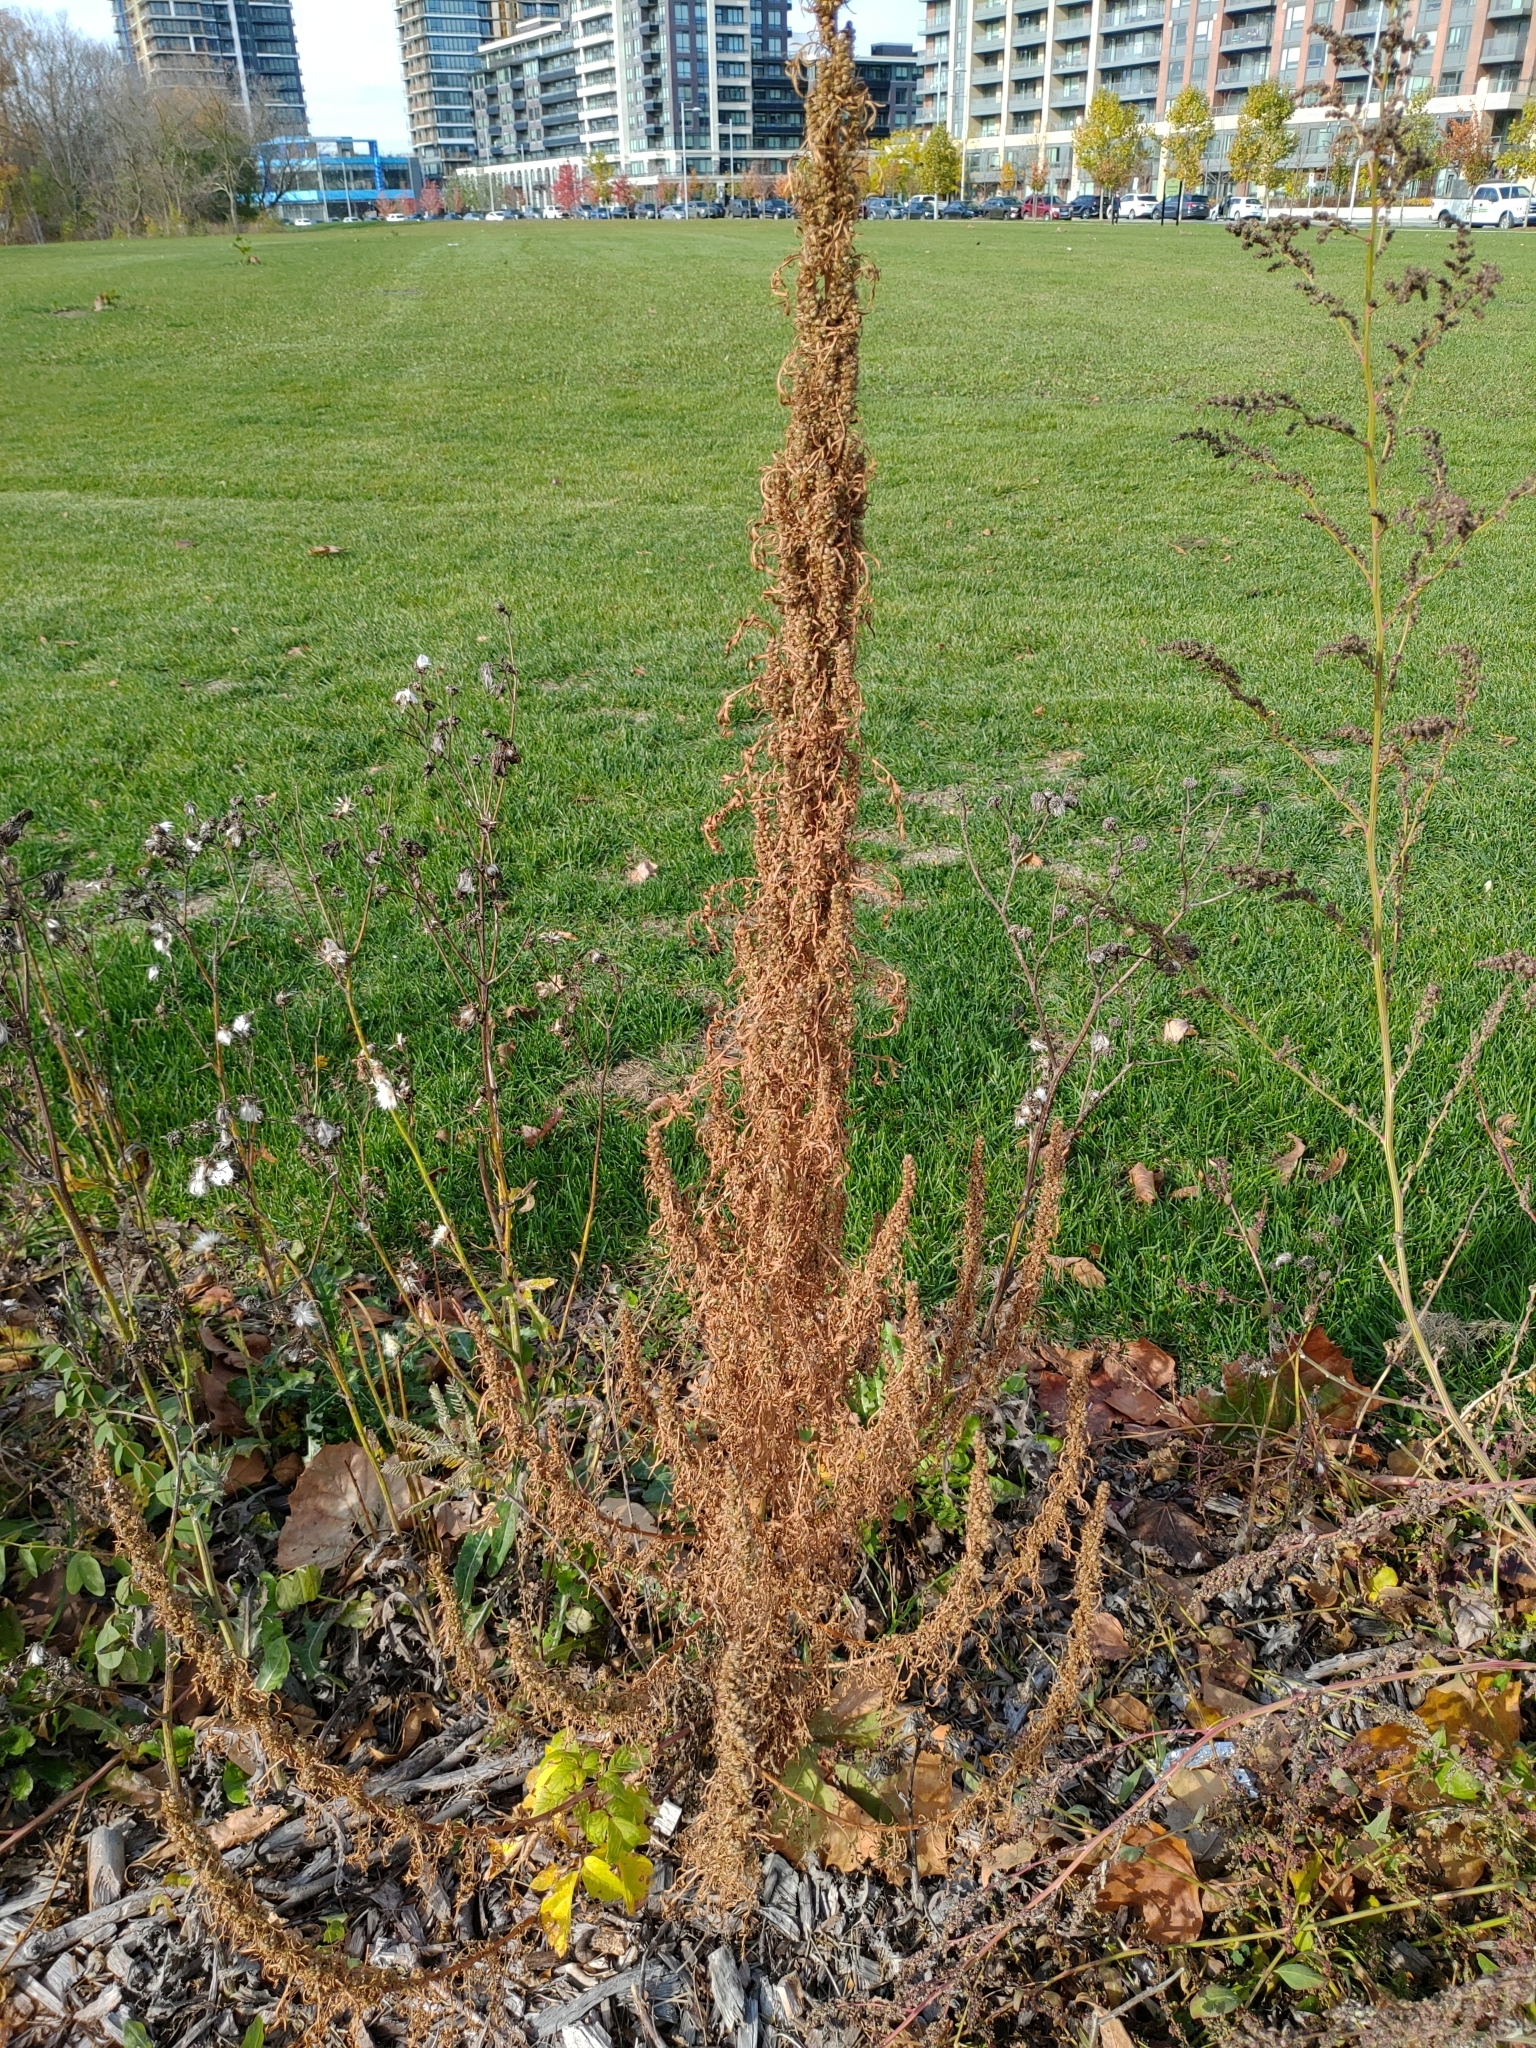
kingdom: Plantae
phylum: Tracheophyta
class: Magnoliopsida
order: Asterales
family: Asteraceae
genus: Artemisia
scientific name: Artemisia biennis
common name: Biennial wormwood
